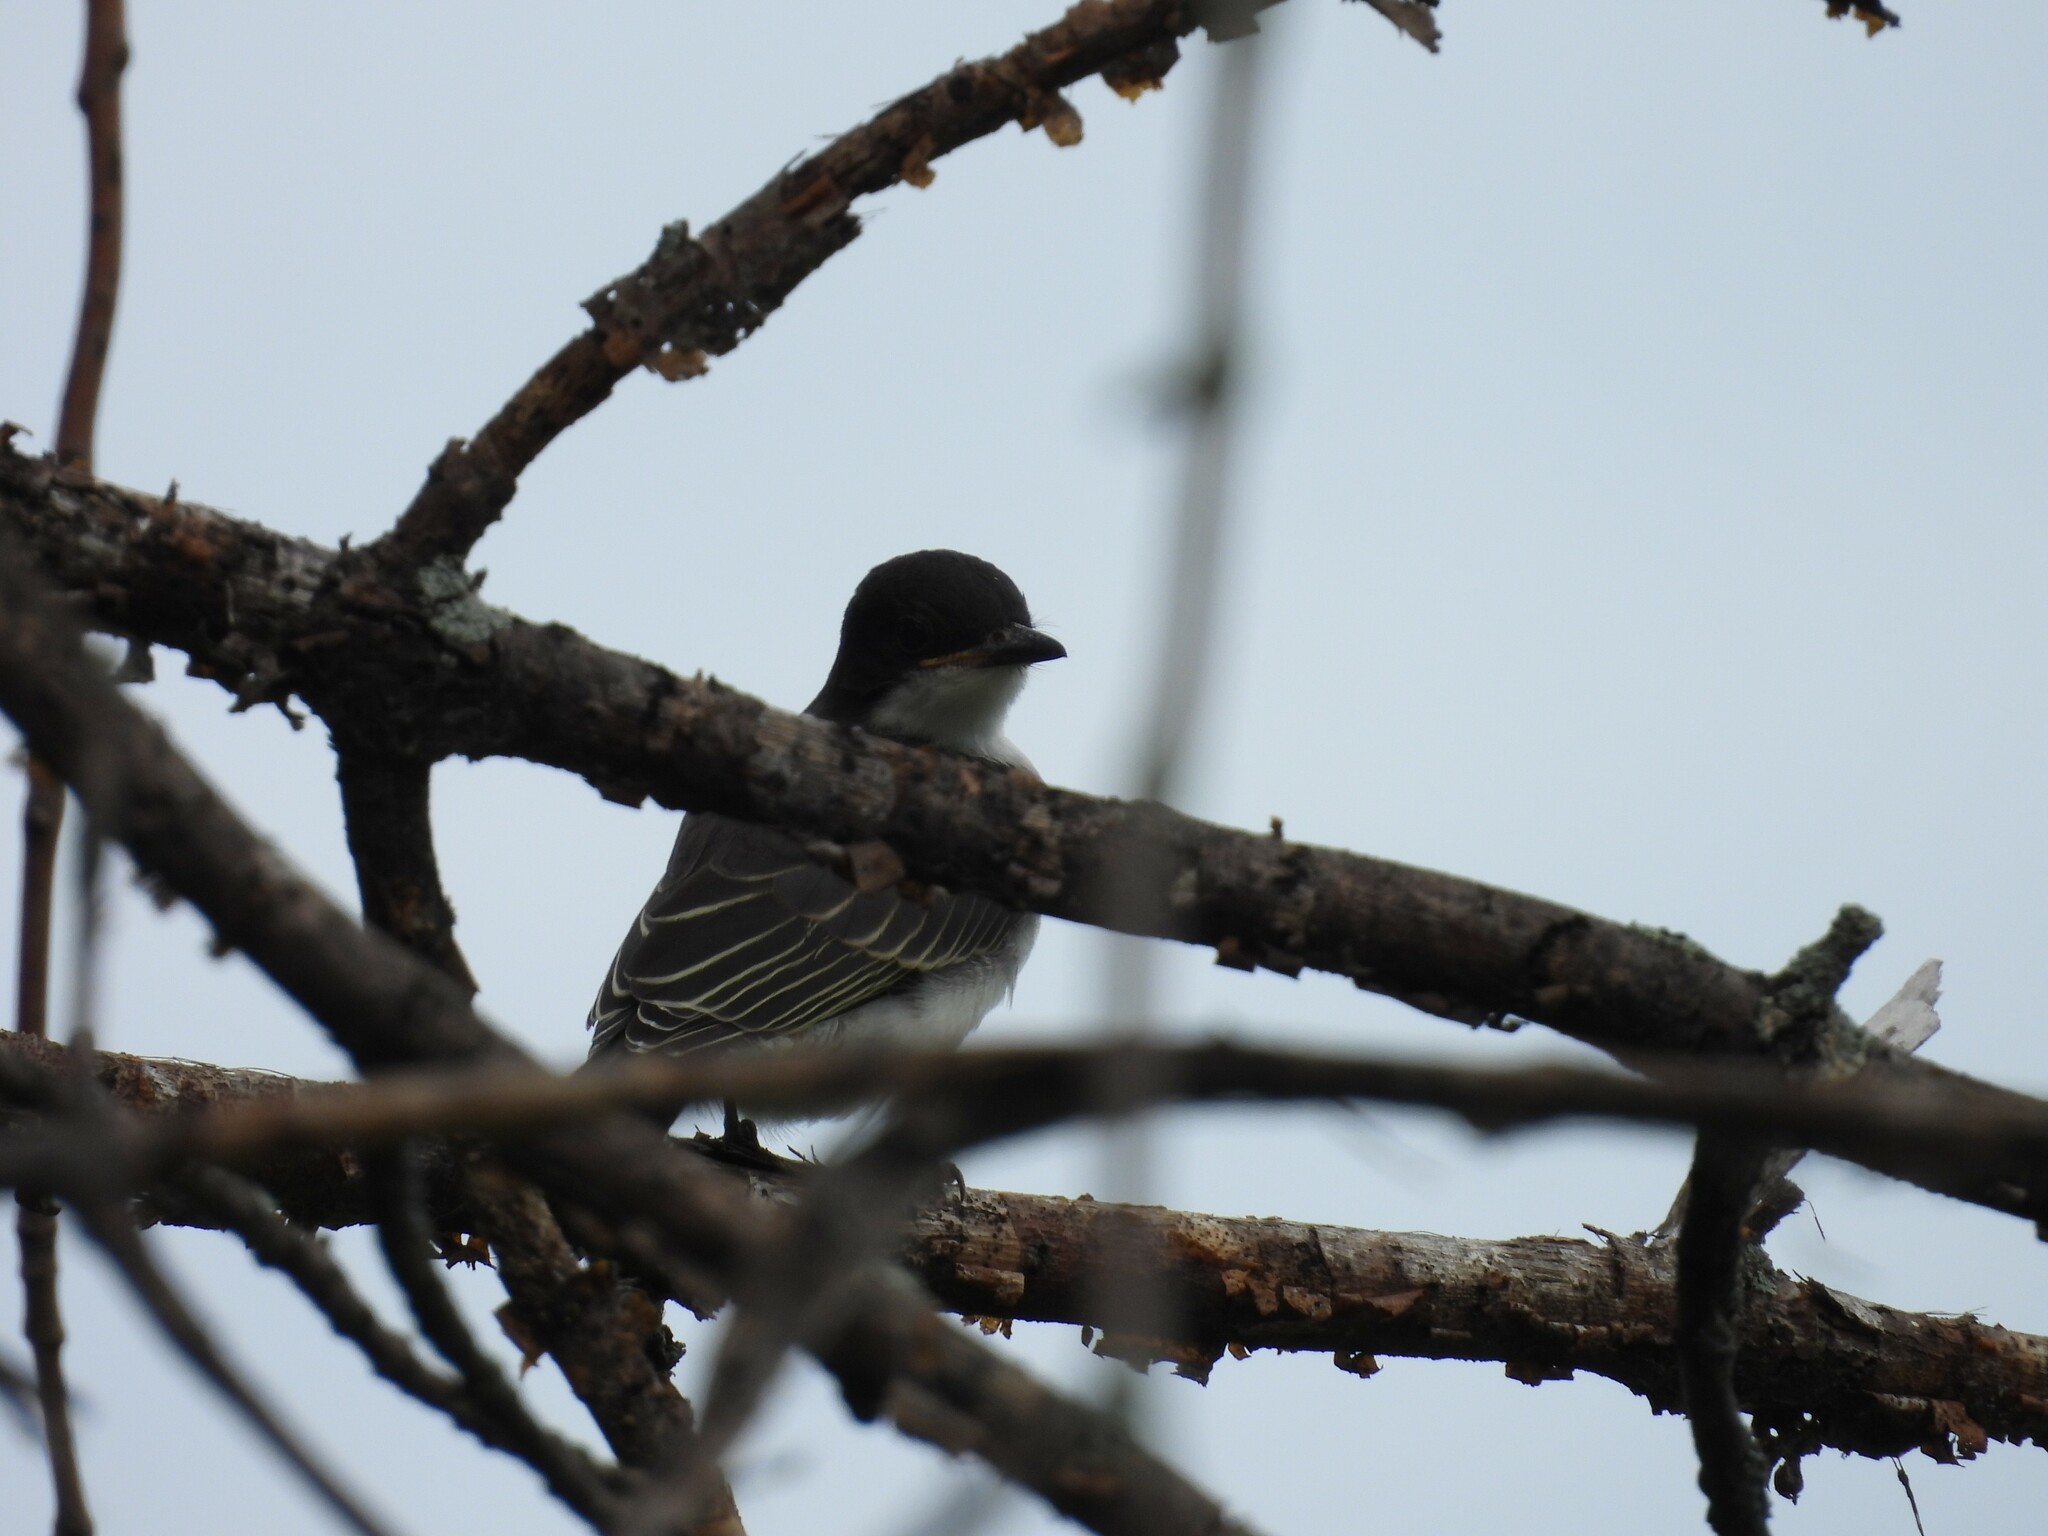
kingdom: Animalia
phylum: Chordata
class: Aves
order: Passeriformes
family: Tyrannidae
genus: Tyrannus
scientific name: Tyrannus tyrannus
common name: Eastern kingbird
